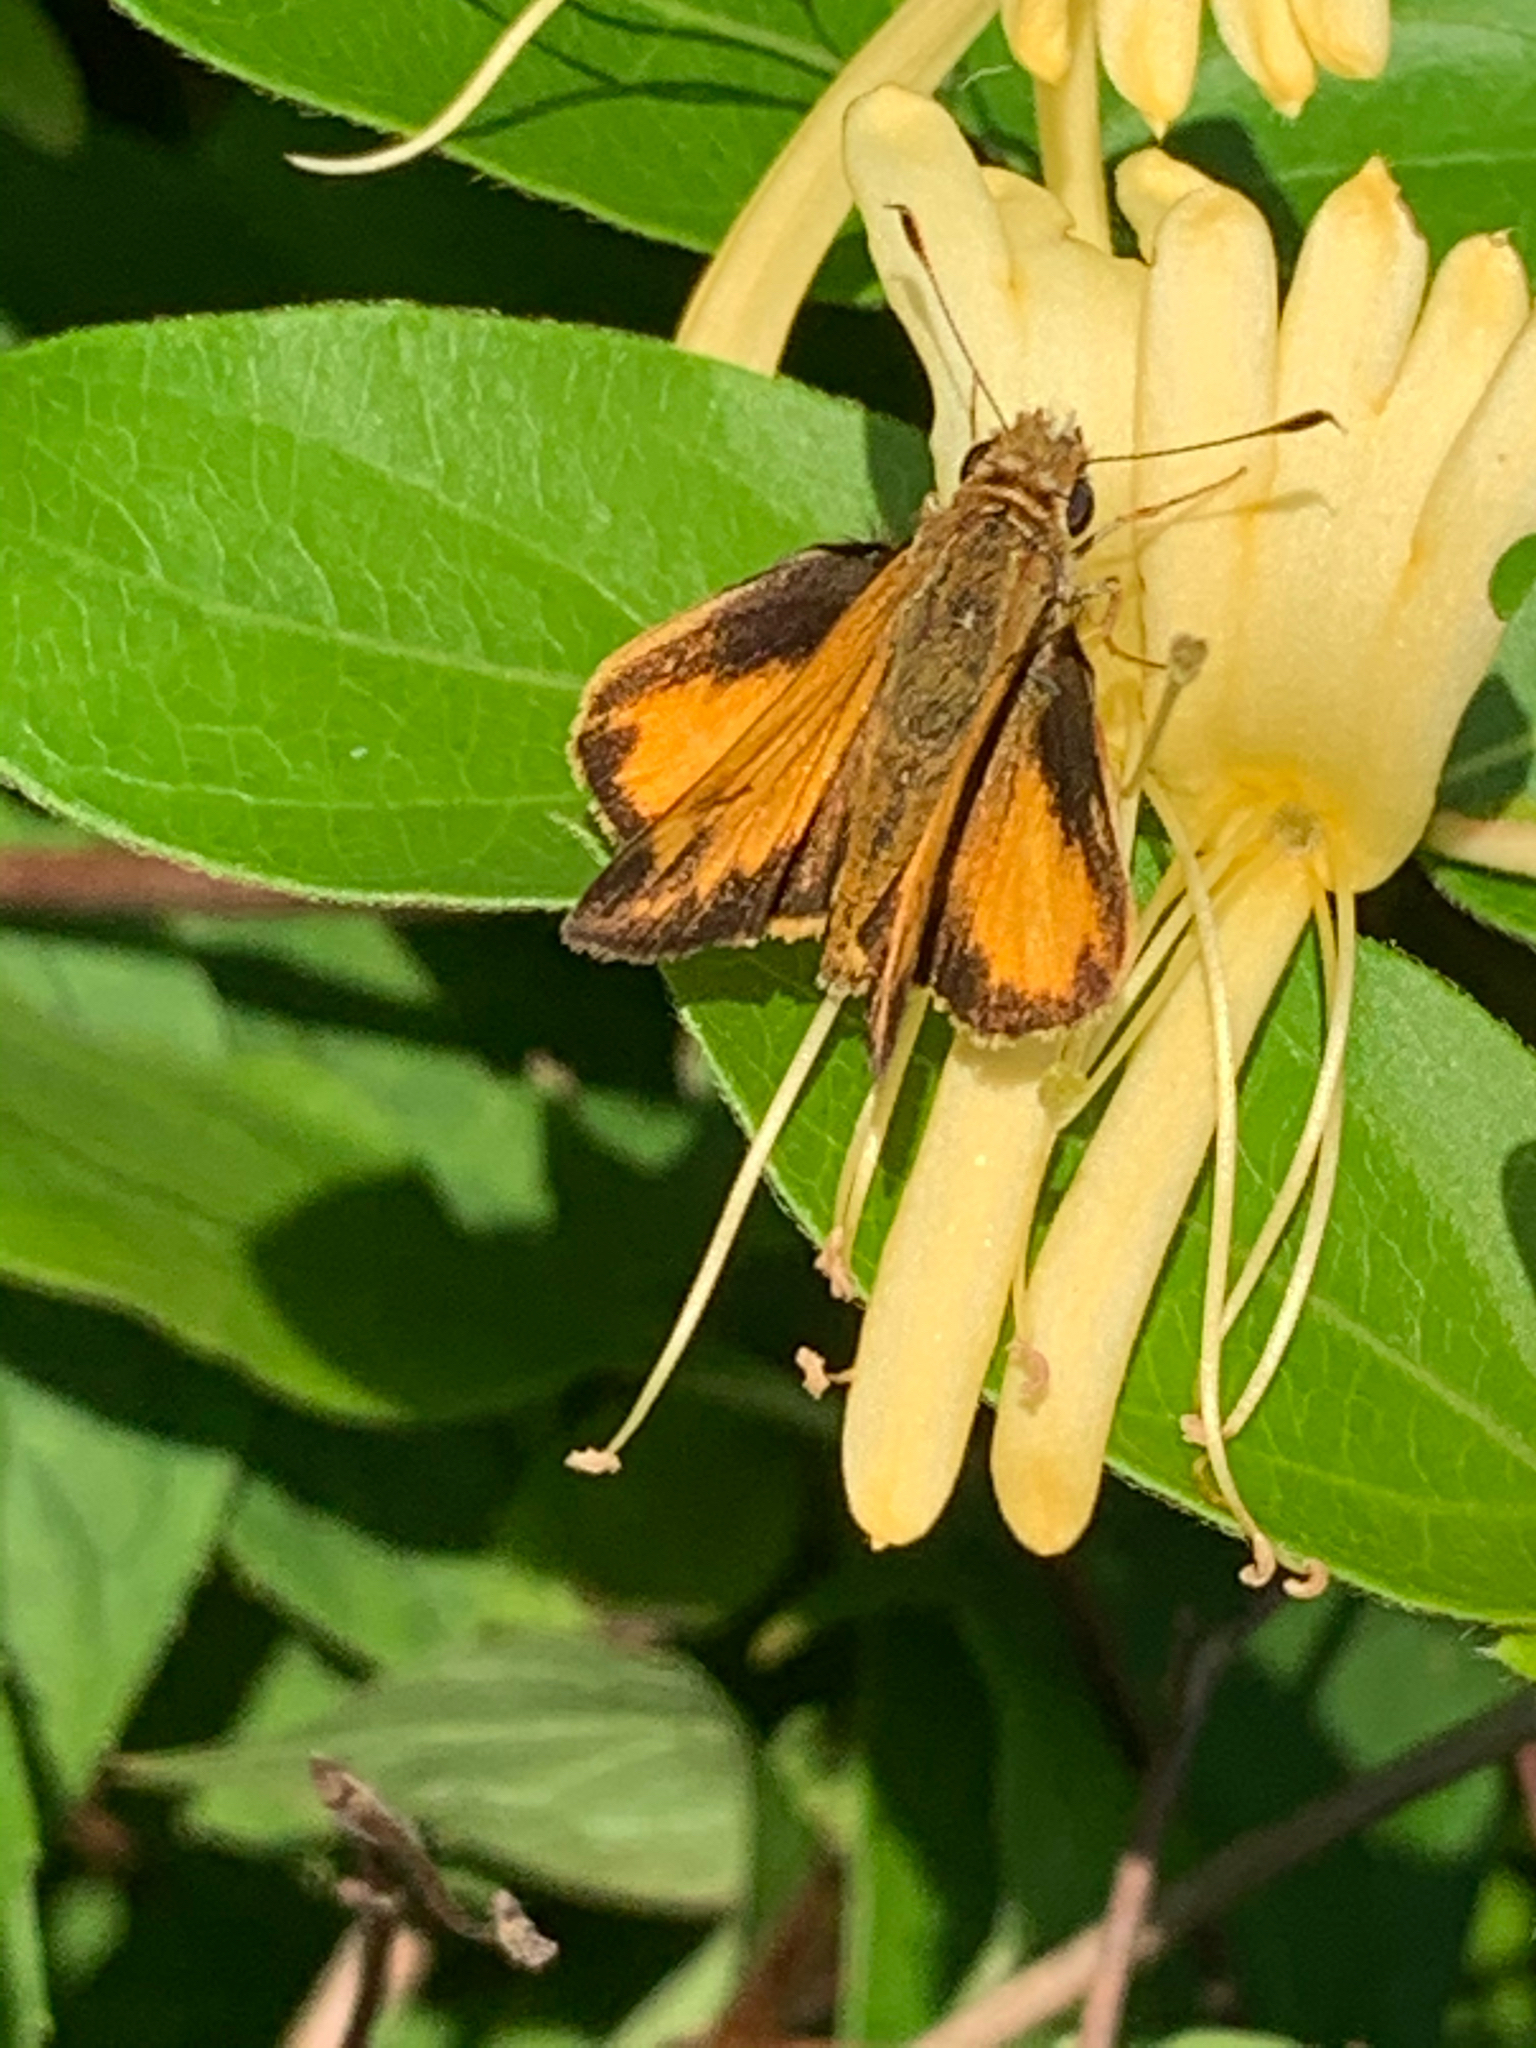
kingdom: Animalia
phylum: Arthropoda
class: Insecta
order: Lepidoptera
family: Hesperiidae
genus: Lon
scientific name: Lon zabulon
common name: Zabulon skipper
